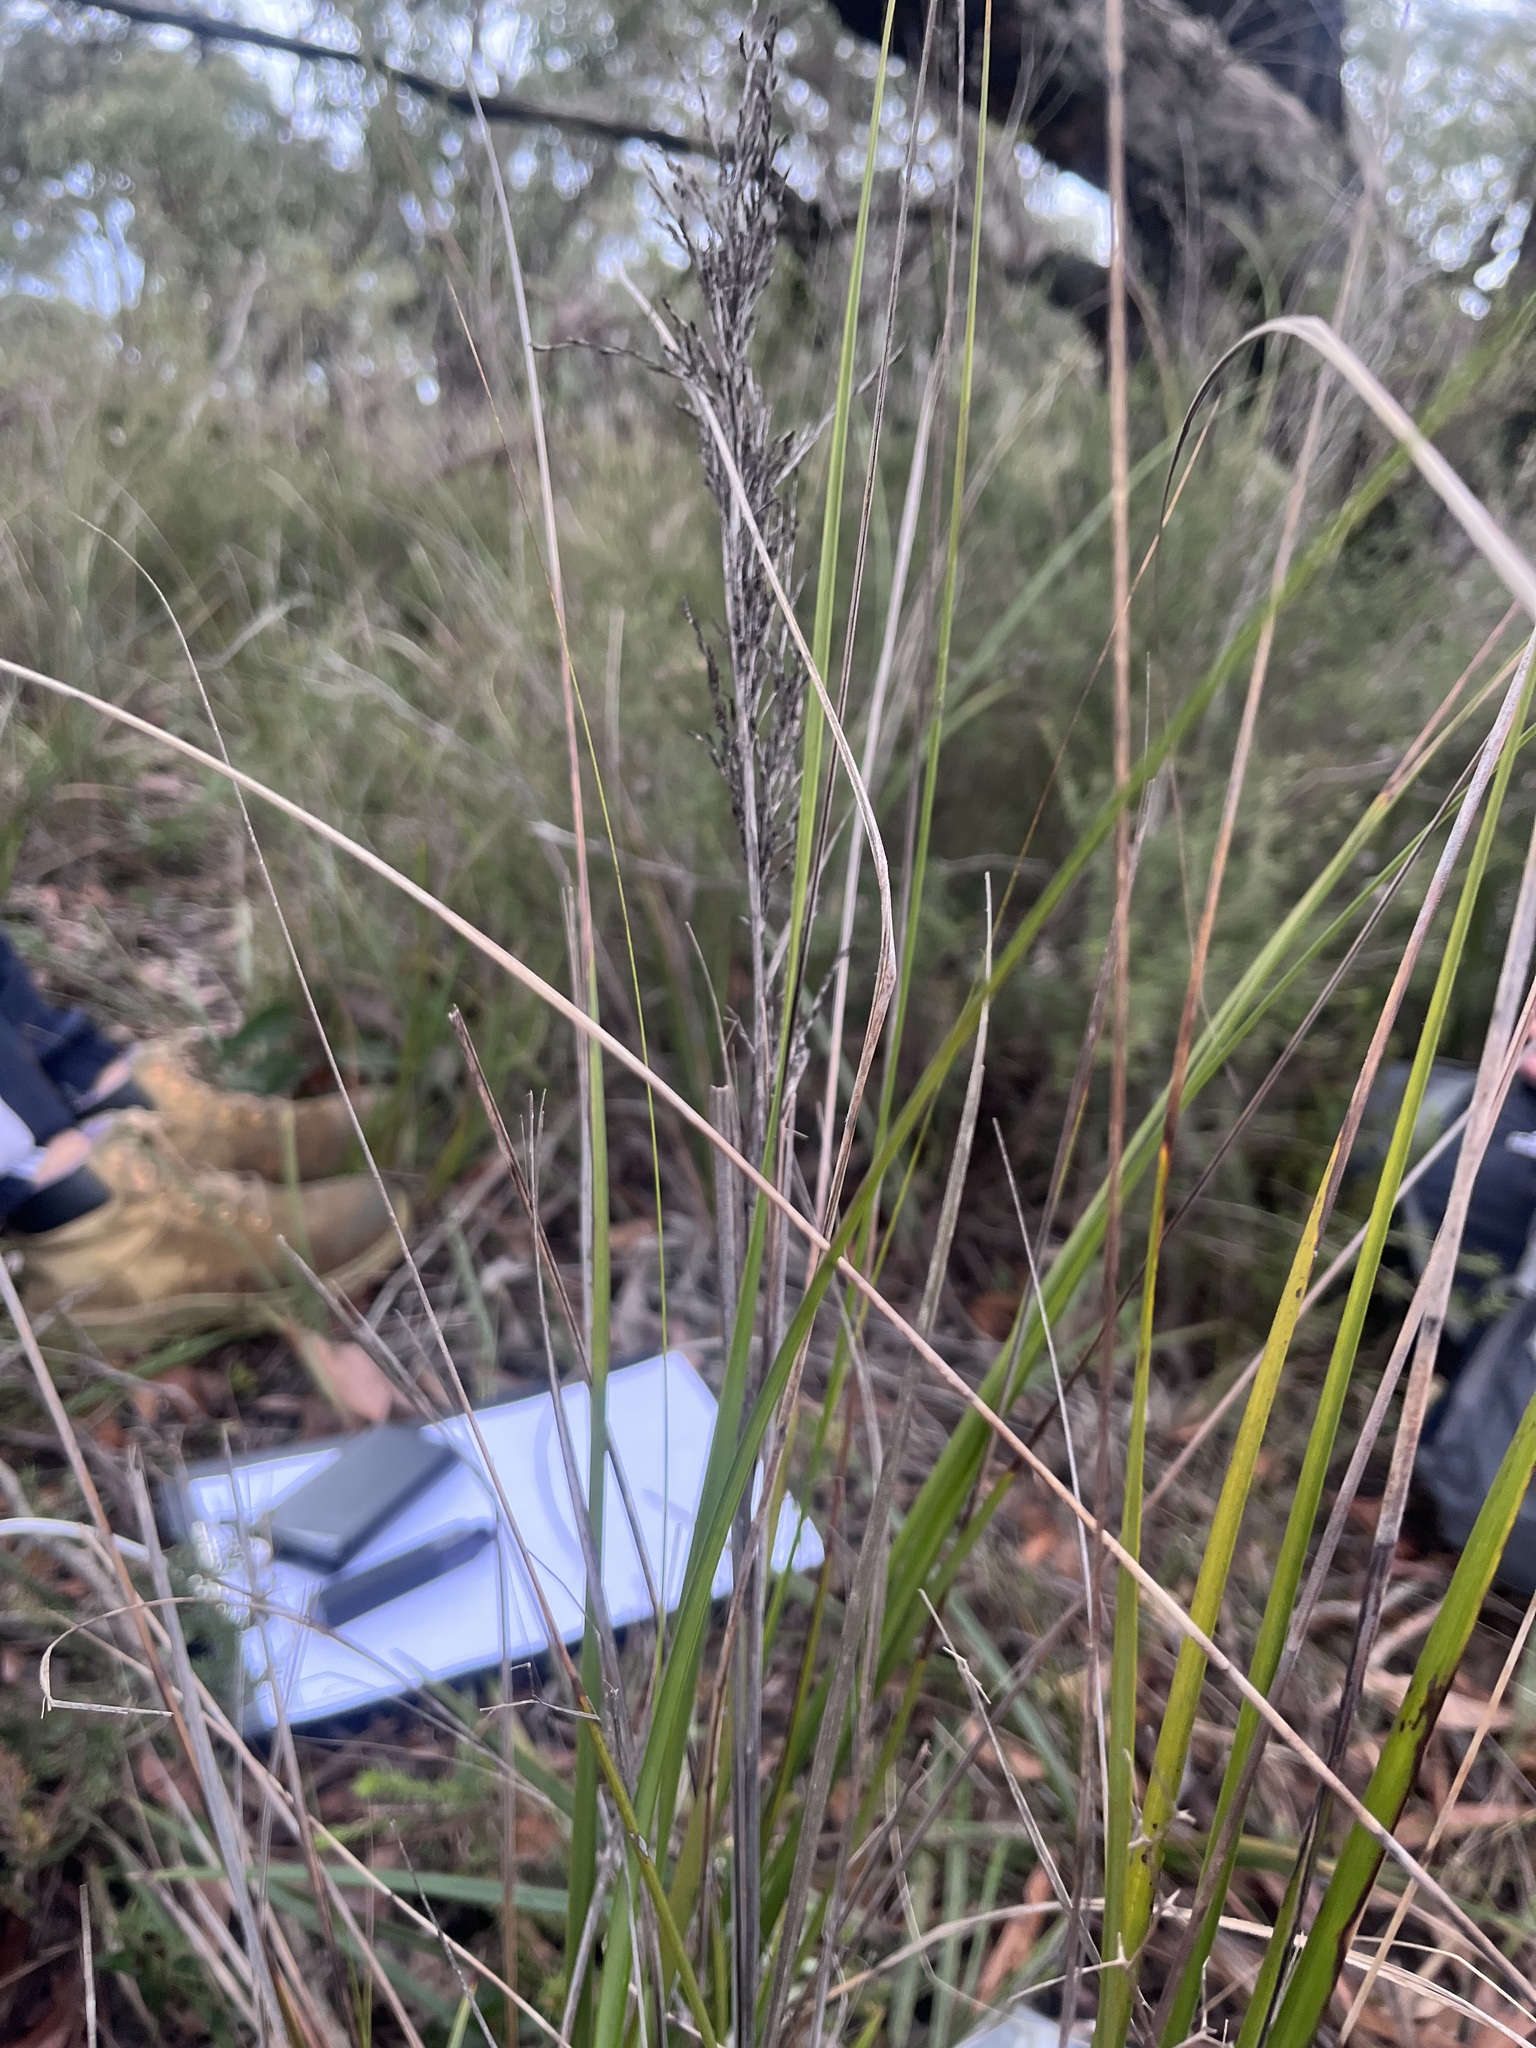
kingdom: Plantae
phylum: Tracheophyta
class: Liliopsida
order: Poales
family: Cyperaceae
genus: Gahnia
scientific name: Gahnia radula
